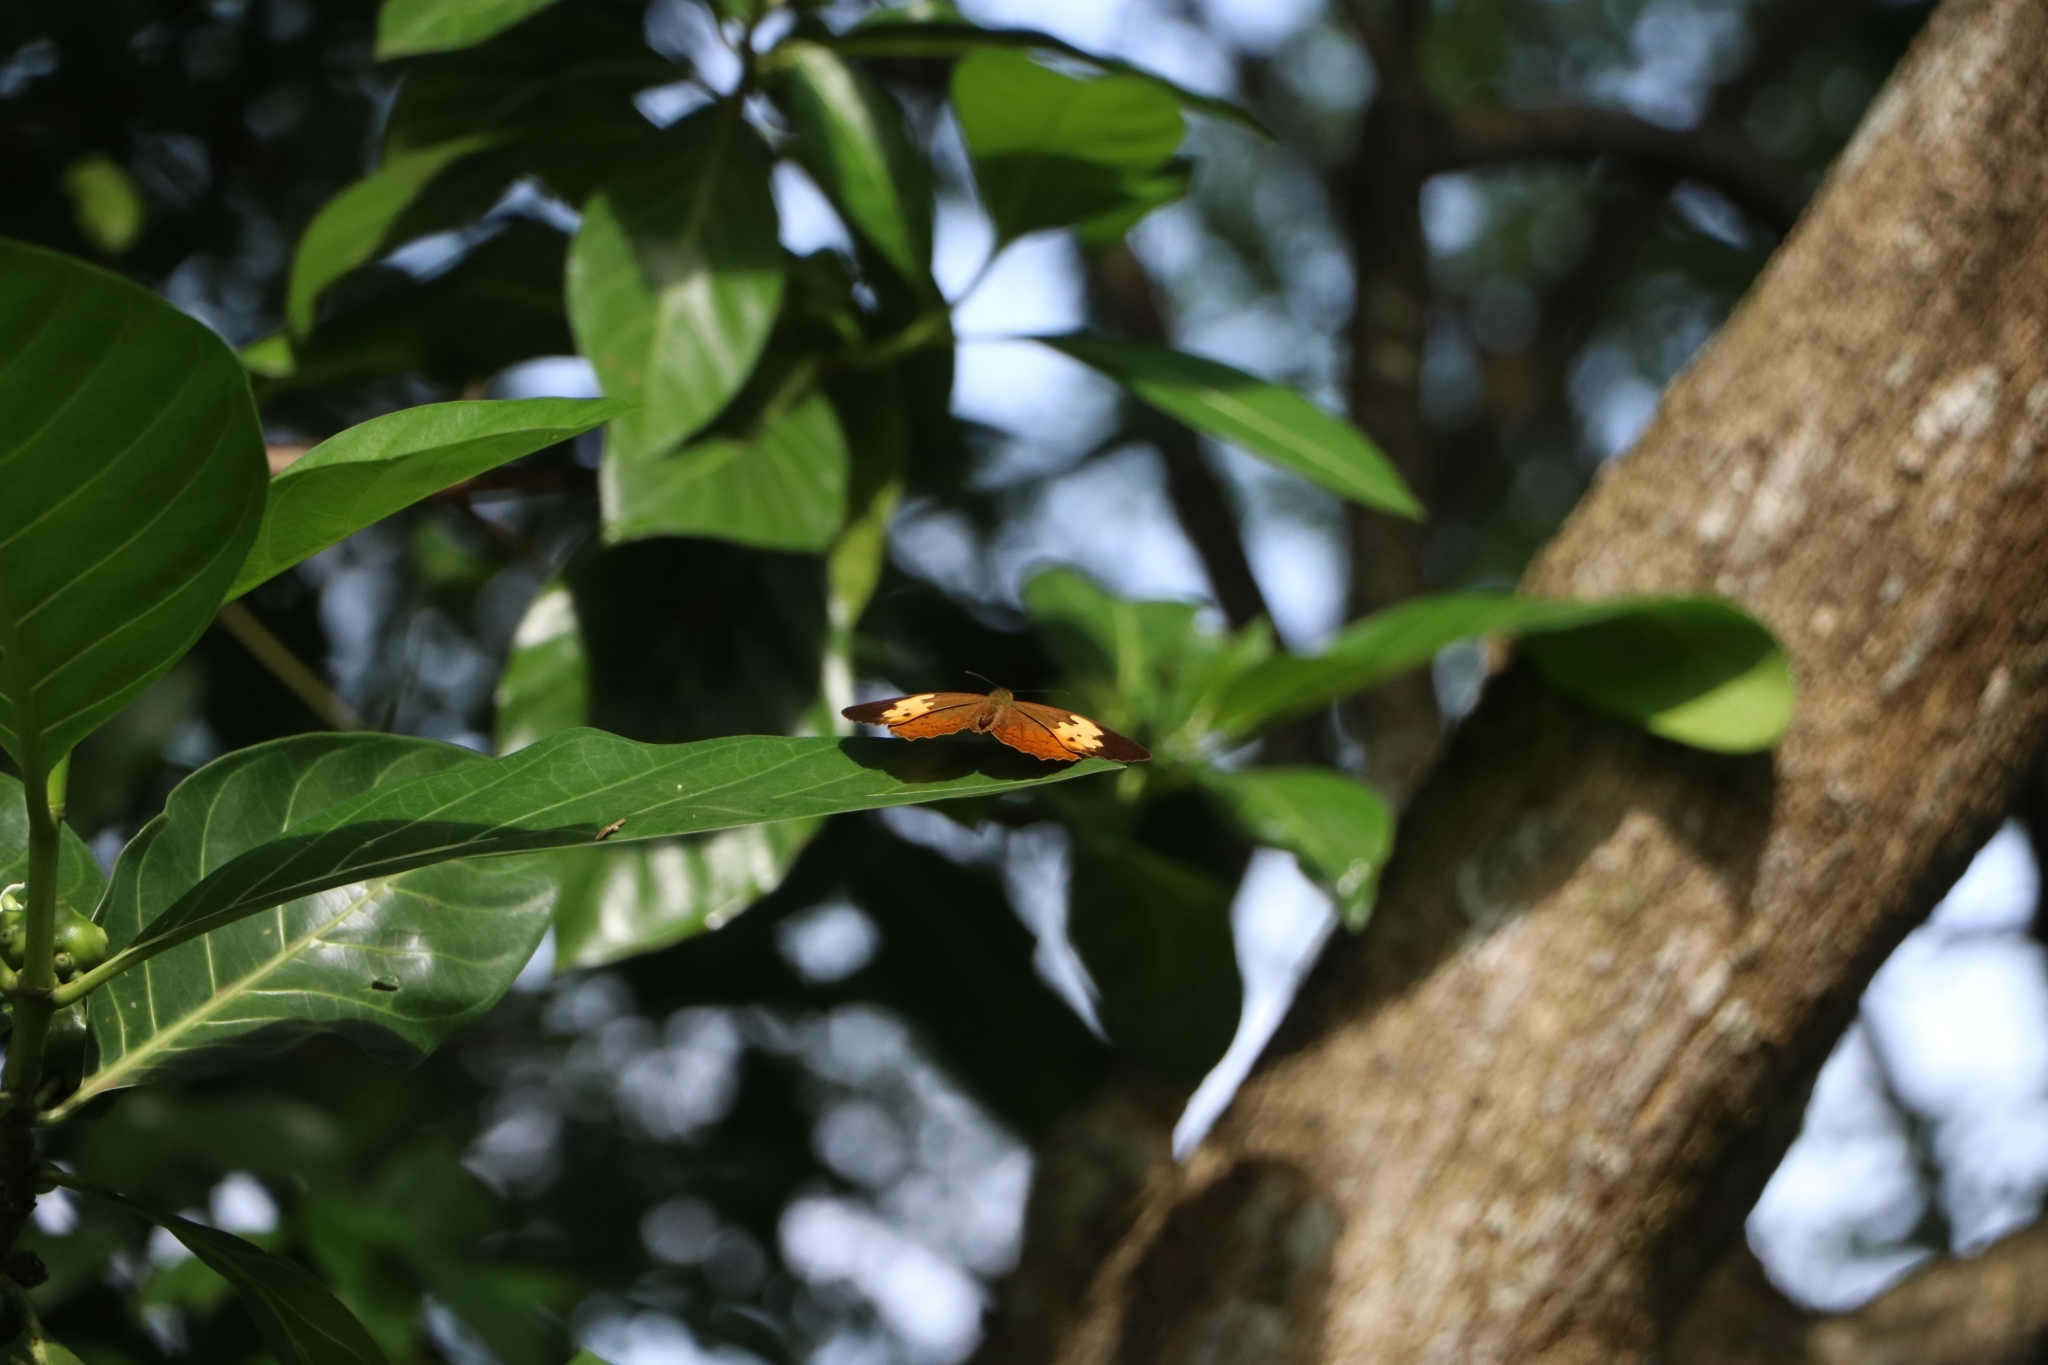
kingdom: Animalia
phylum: Arthropoda
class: Insecta
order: Lepidoptera
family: Nymphalidae
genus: Cupha
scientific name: Cupha erymanthis
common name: Rustic
